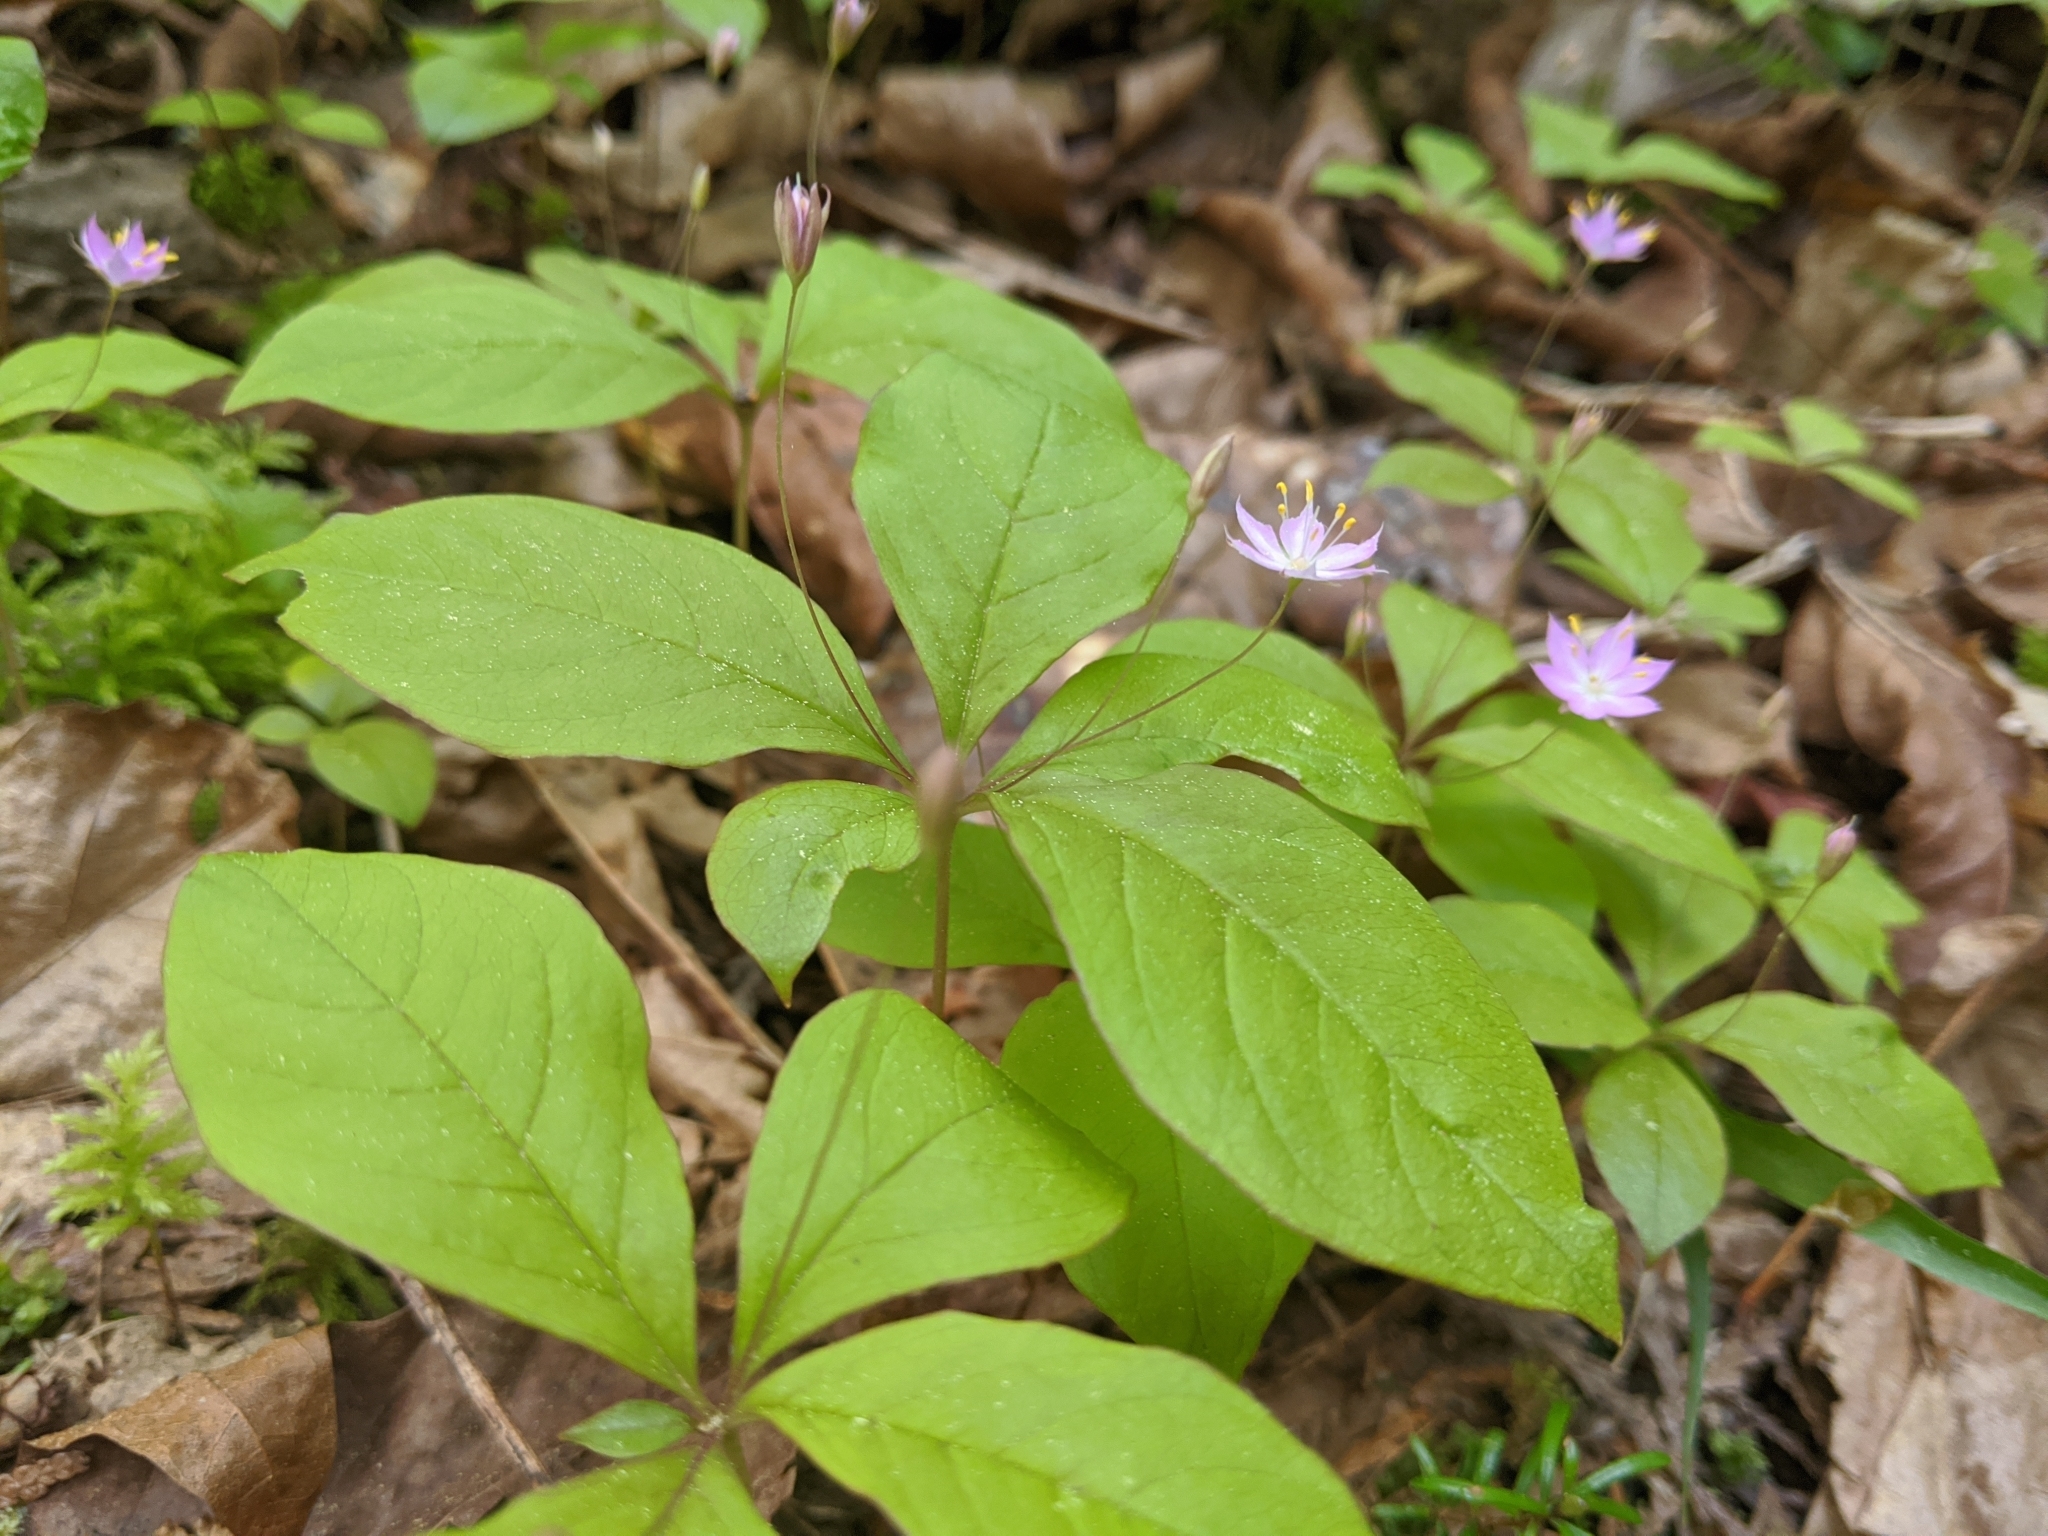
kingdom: Plantae
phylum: Tracheophyta
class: Magnoliopsida
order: Ericales
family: Primulaceae
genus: Lysimachia
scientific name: Lysimachia latifolia
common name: Pacific starflower
